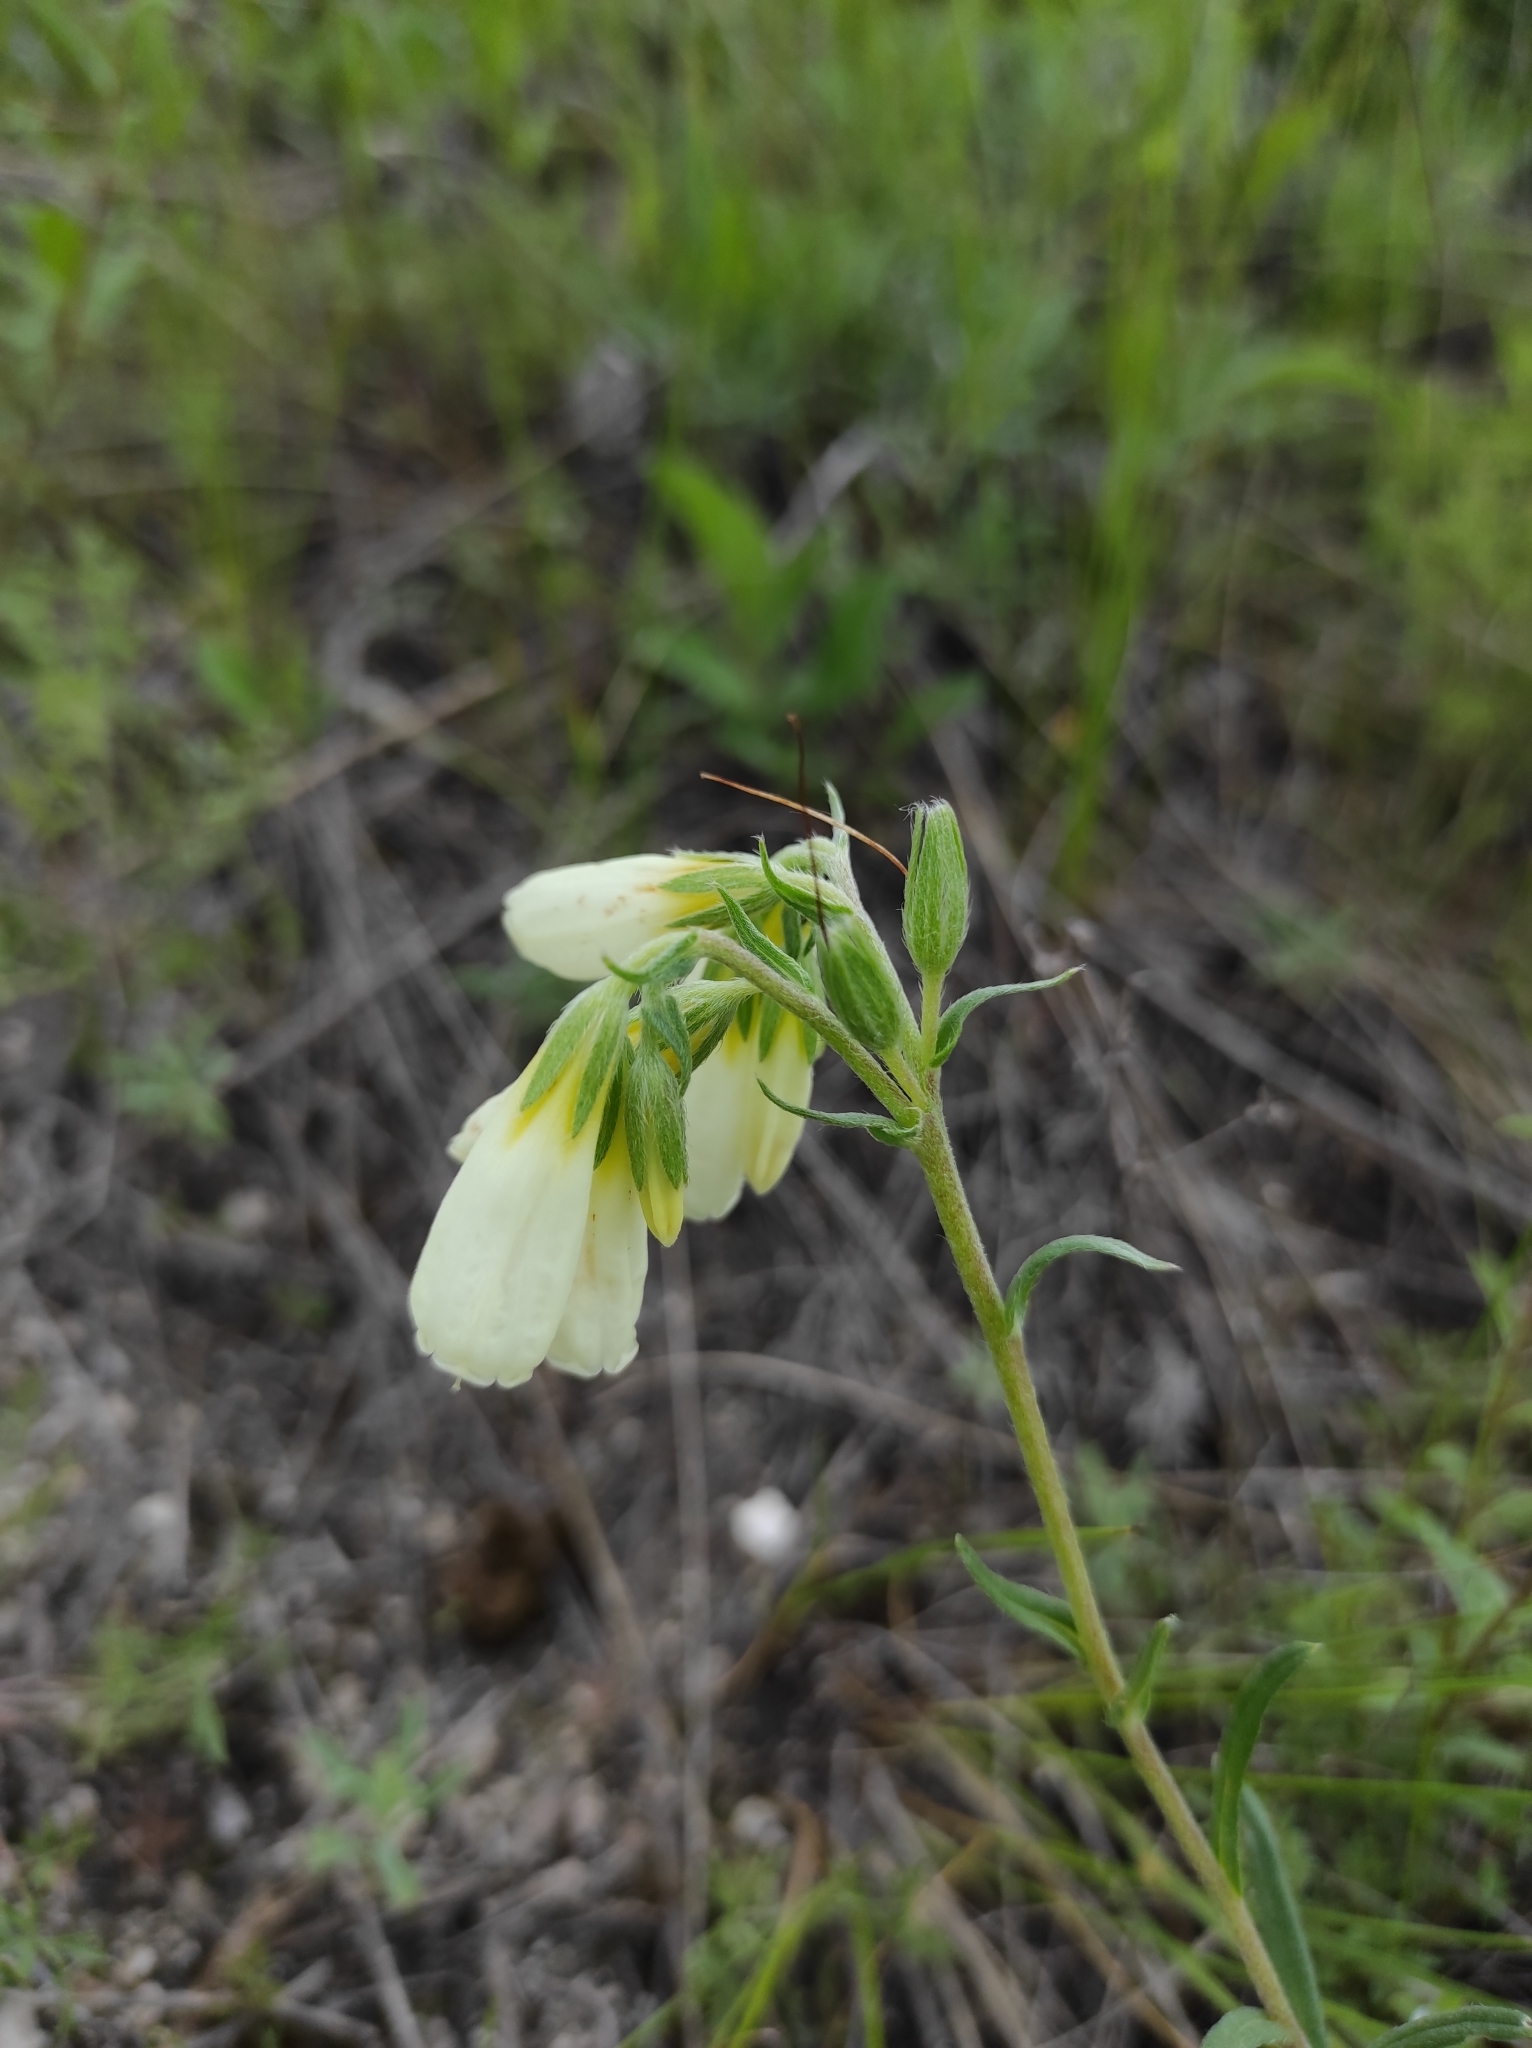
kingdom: Plantae
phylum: Tracheophyta
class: Magnoliopsida
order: Boraginales
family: Boraginaceae
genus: Onosma
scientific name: Onosma simplicissima
